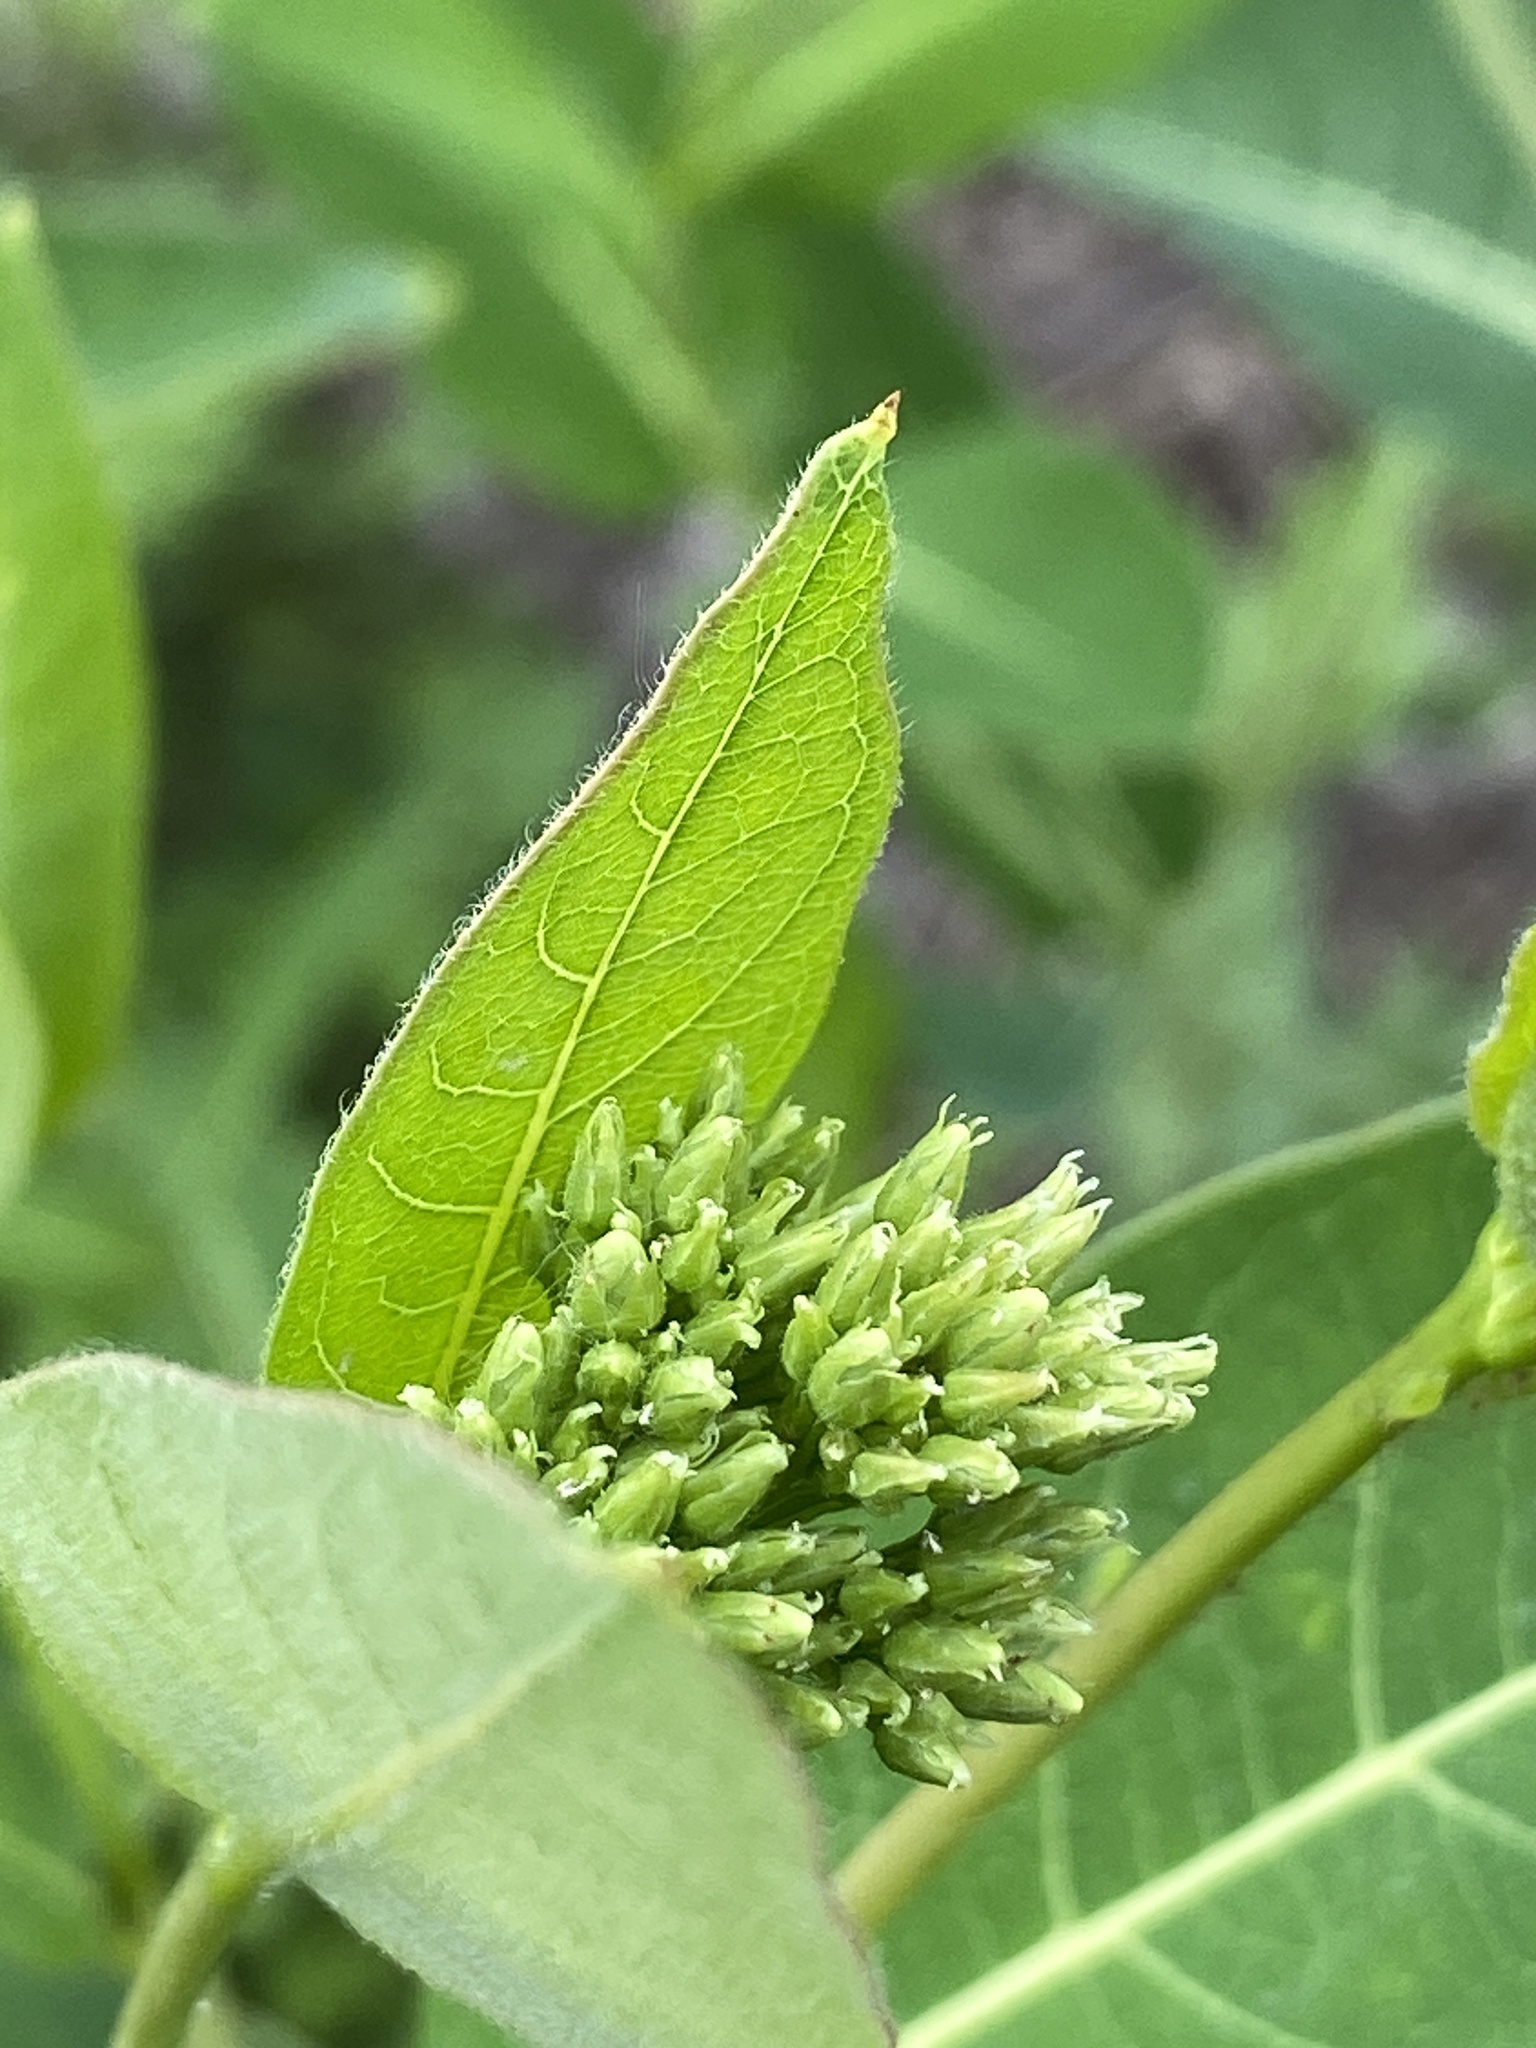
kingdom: Plantae
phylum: Tracheophyta
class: Magnoliopsida
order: Gentianales
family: Apocynaceae
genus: Apocynum
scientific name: Apocynum cannabinum
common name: Hemp dogbane
